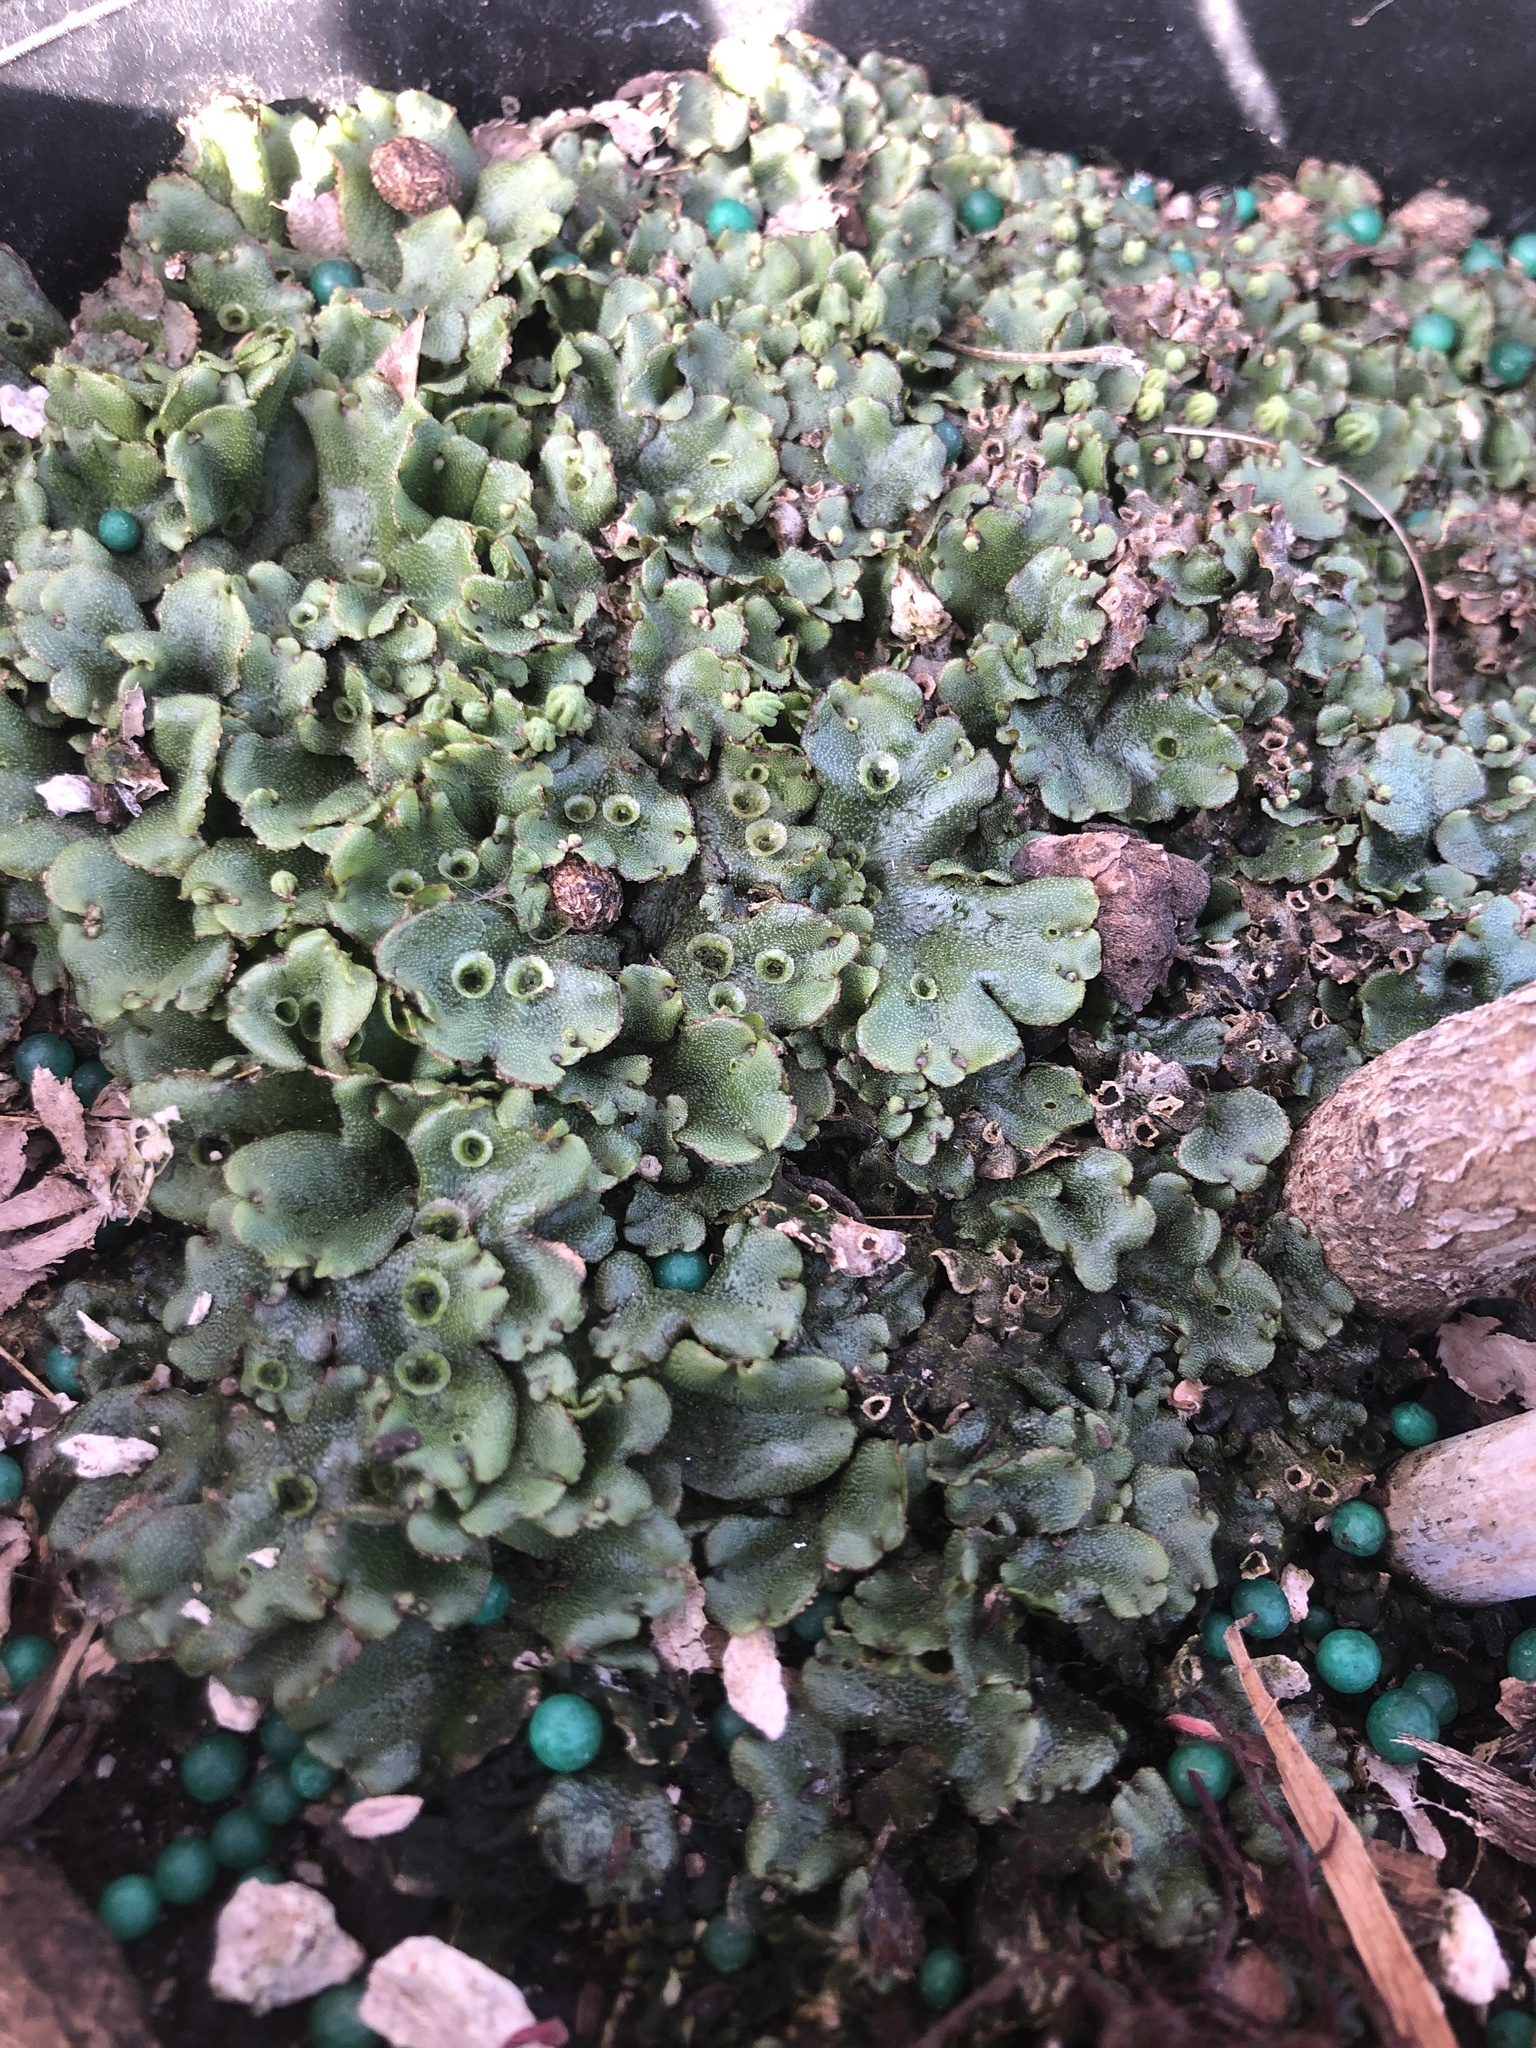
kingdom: Plantae
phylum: Marchantiophyta
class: Marchantiopsida
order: Marchantiales
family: Marchantiaceae
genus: Marchantia
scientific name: Marchantia polymorpha
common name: Common liverwort
